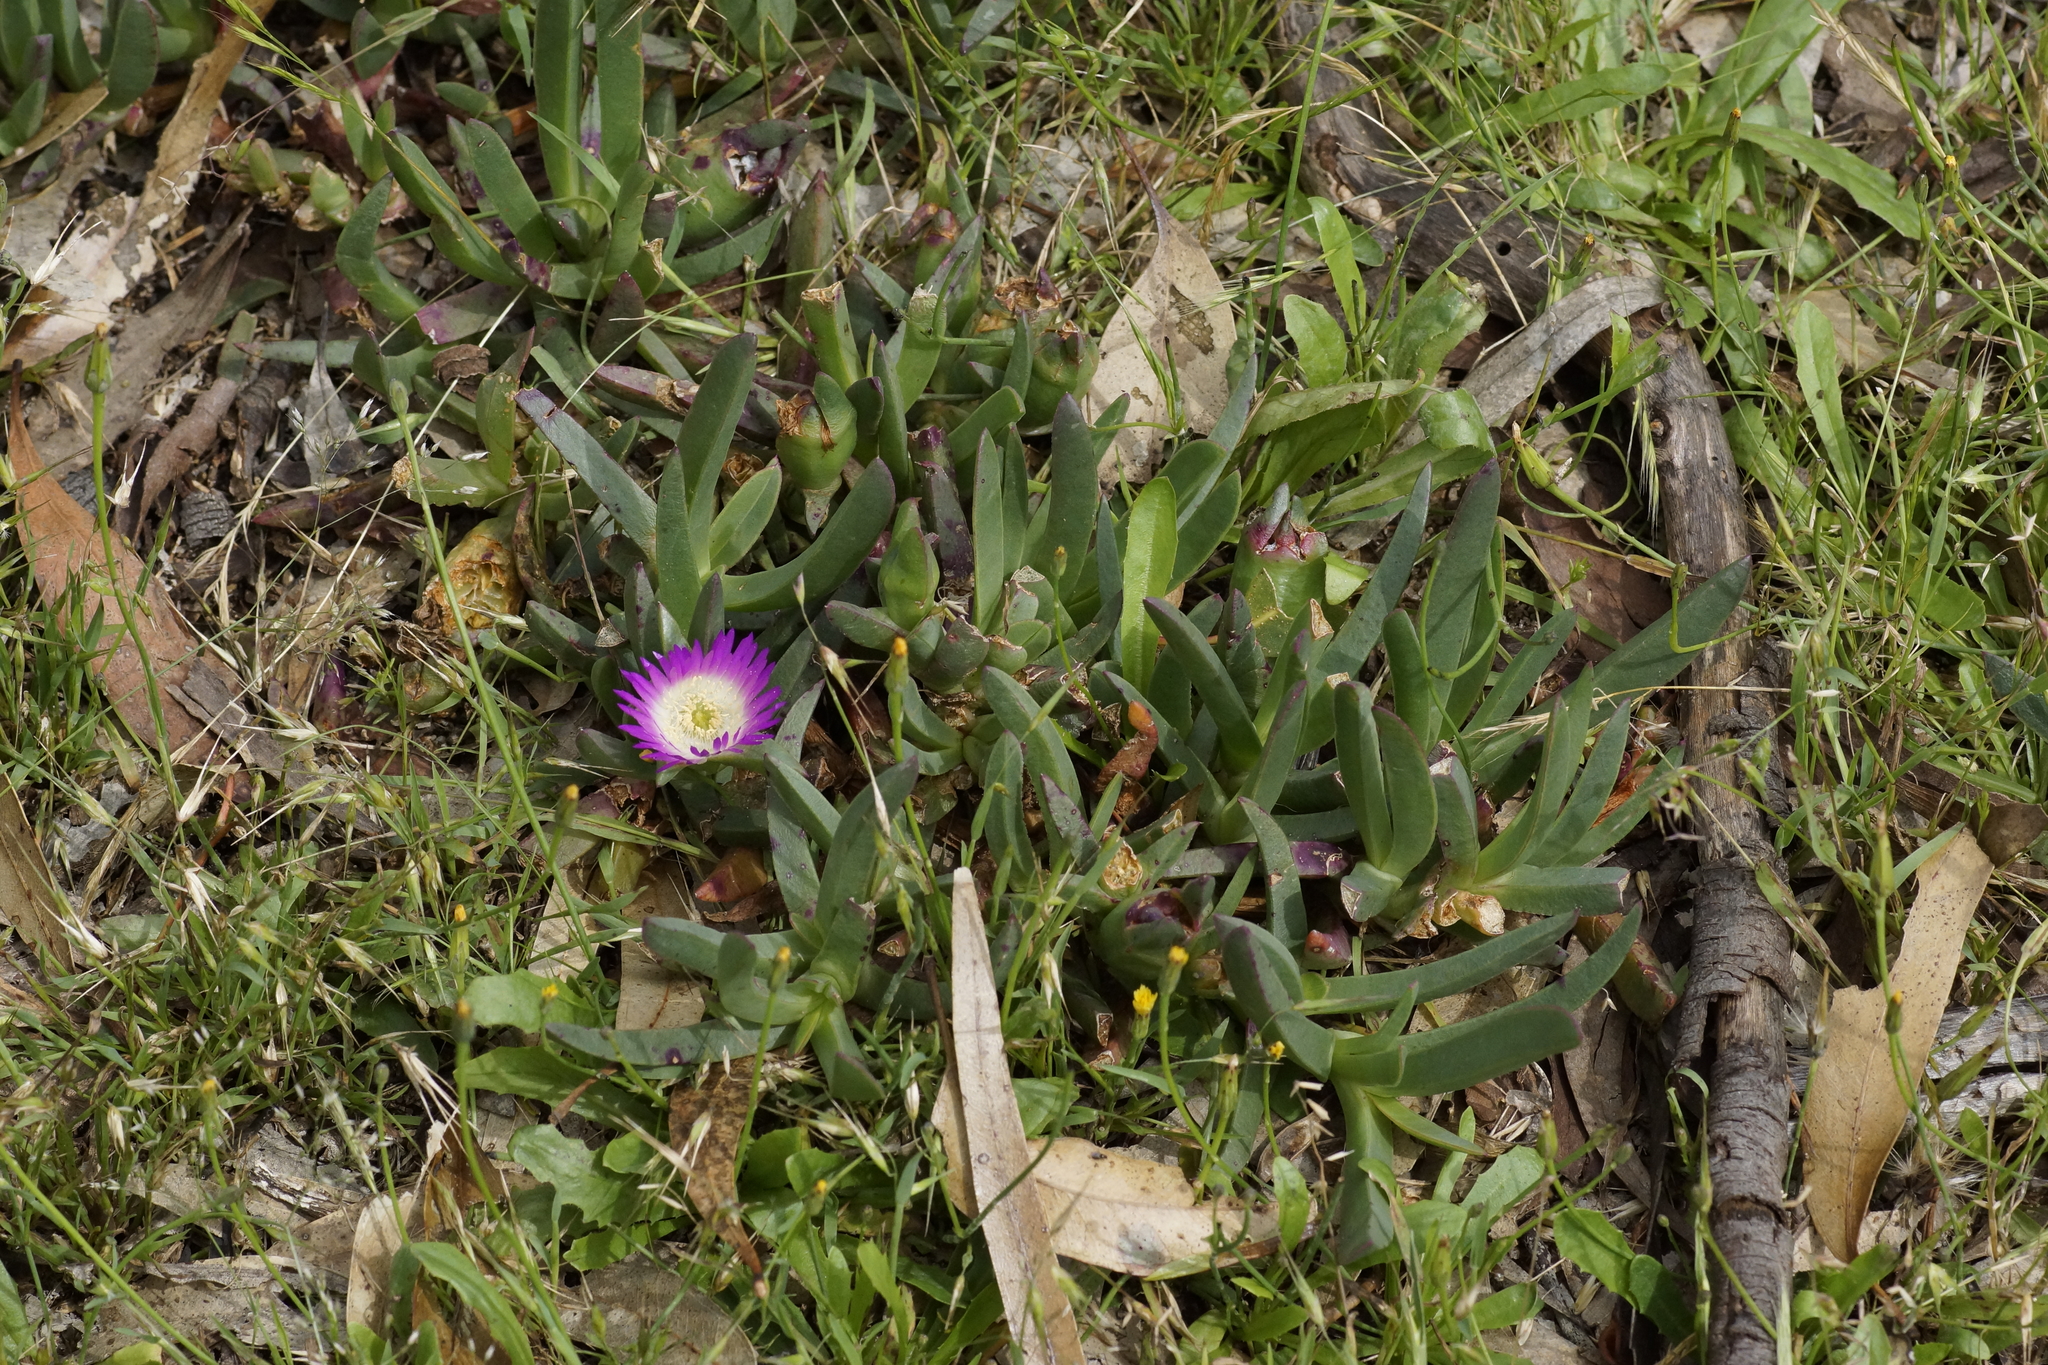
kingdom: Plantae
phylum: Tracheophyta
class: Magnoliopsida
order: Caryophyllales
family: Aizoaceae
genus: Carpobrotus
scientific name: Carpobrotus rossii
